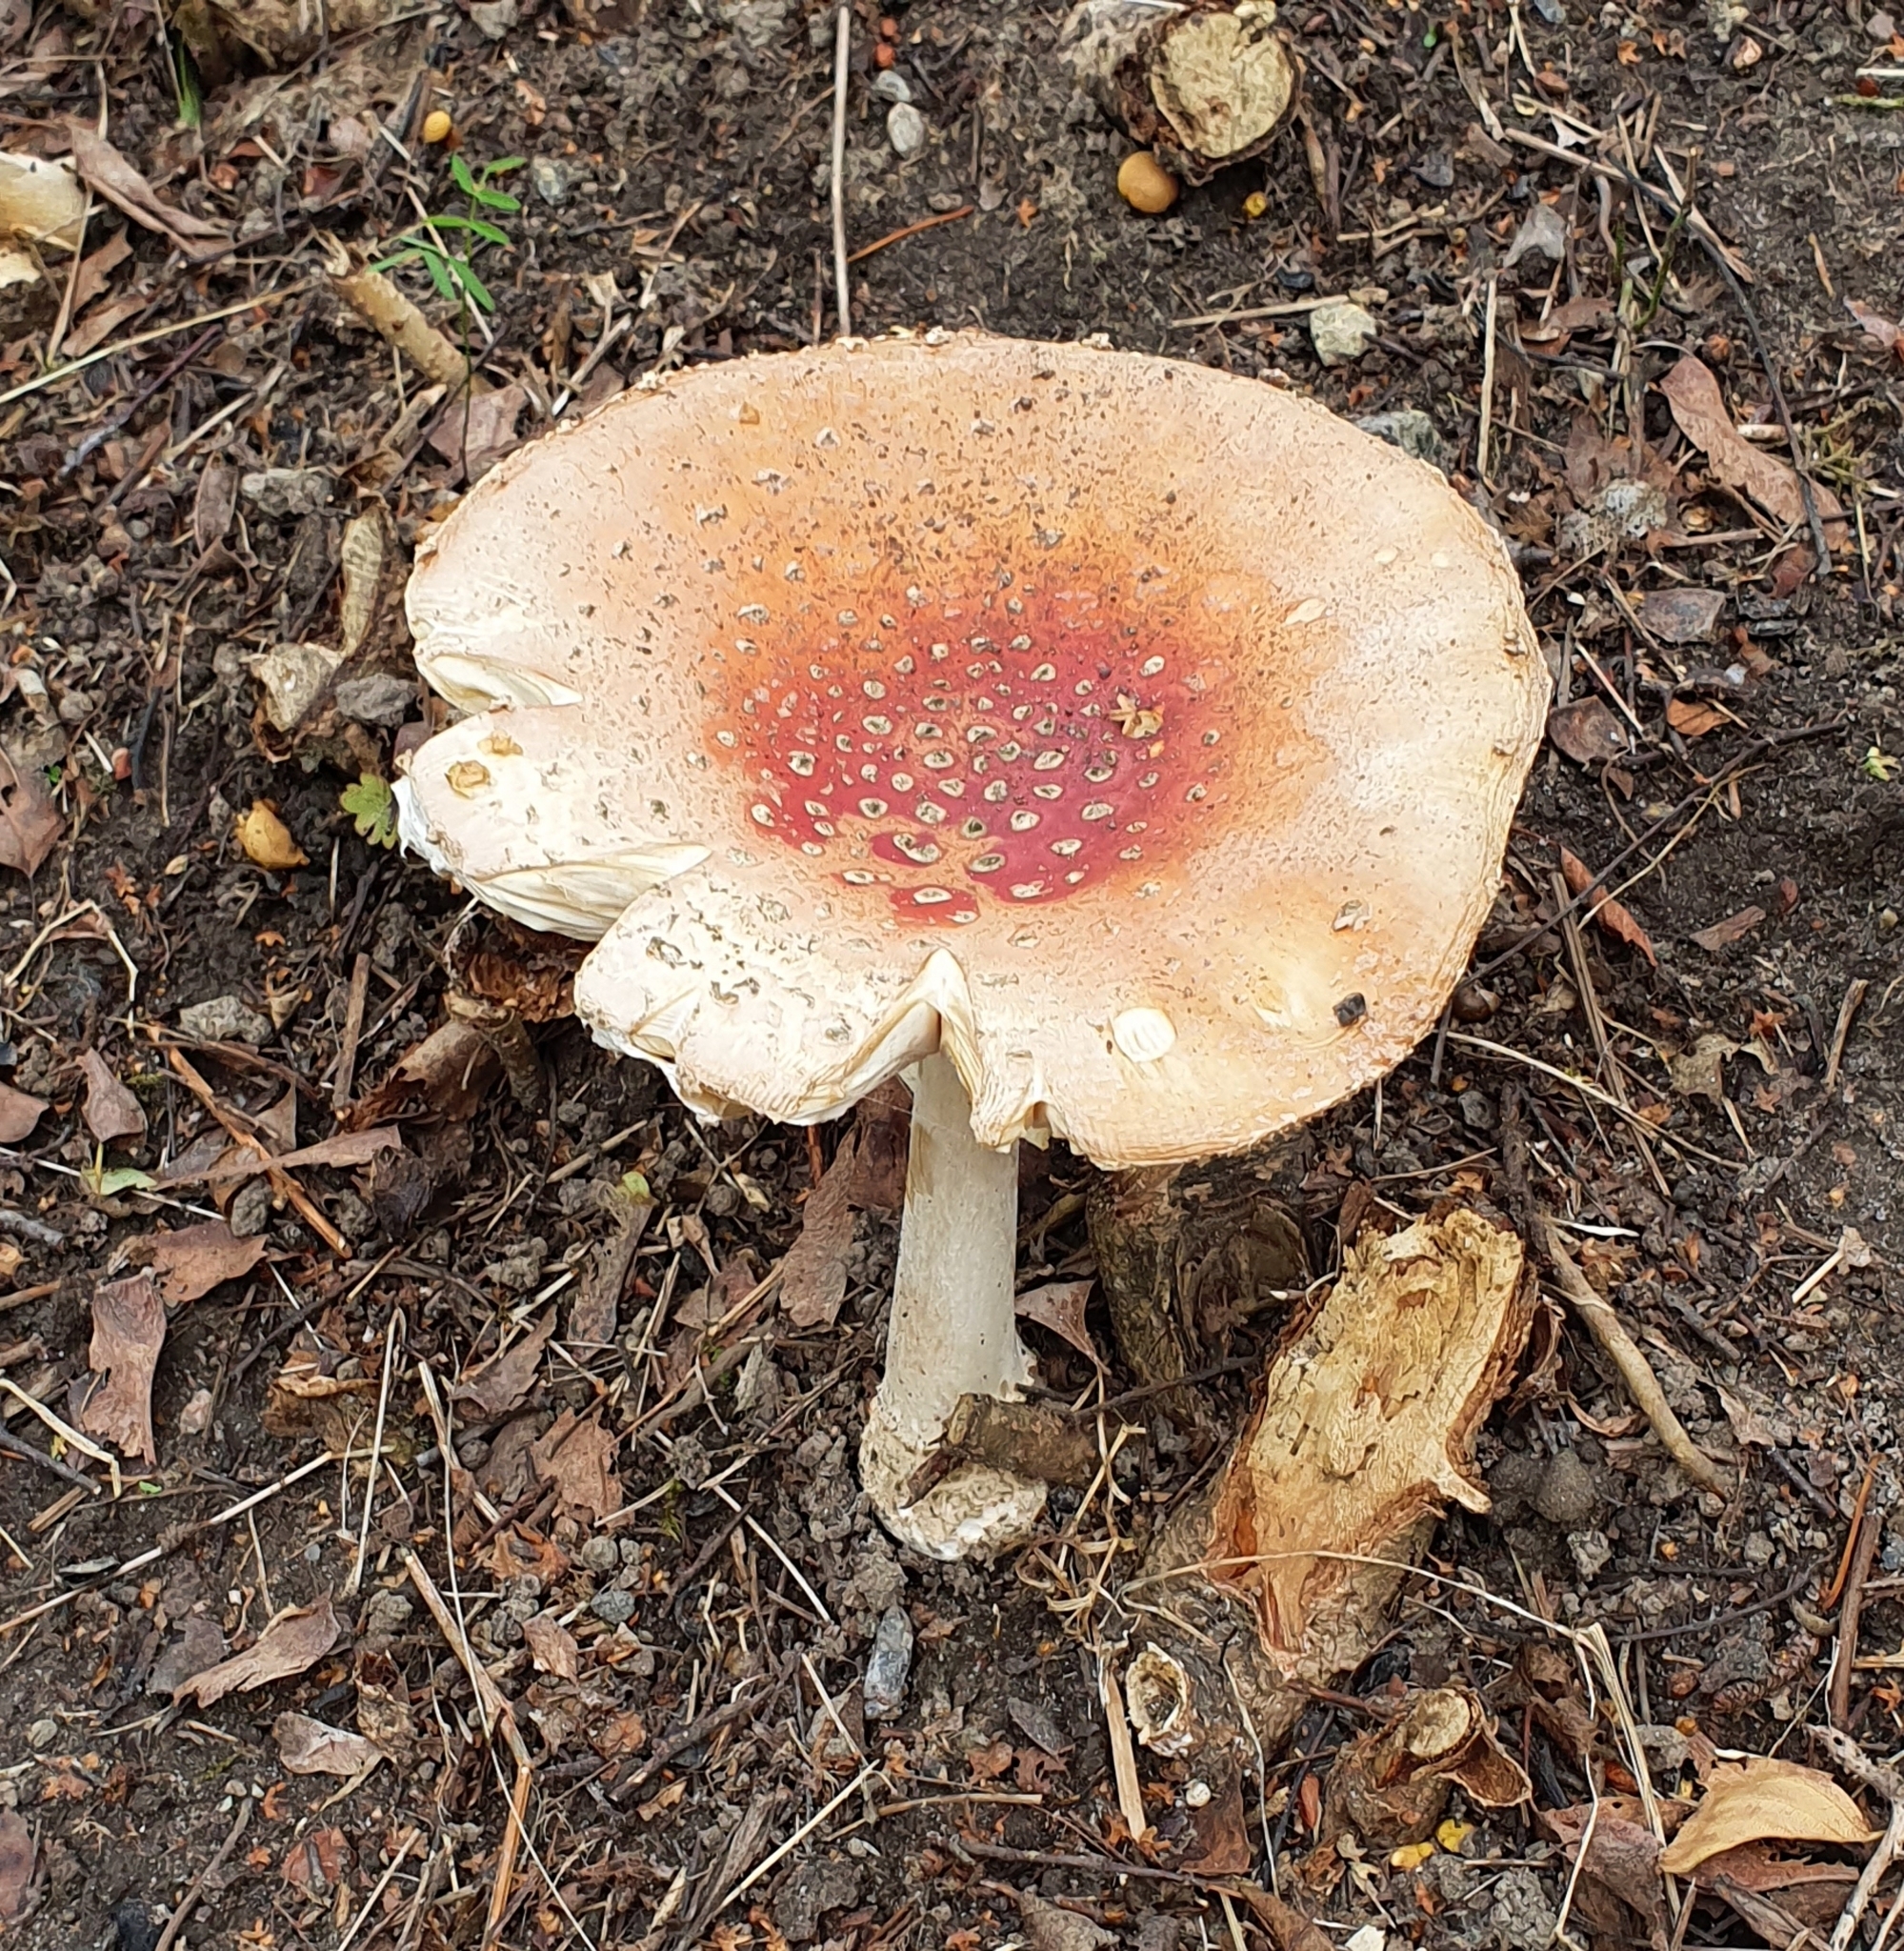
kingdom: Fungi
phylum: Basidiomycota
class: Agaricomycetes
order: Agaricales
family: Amanitaceae
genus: Amanita
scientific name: Amanita muscaria
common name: Fly agaric
